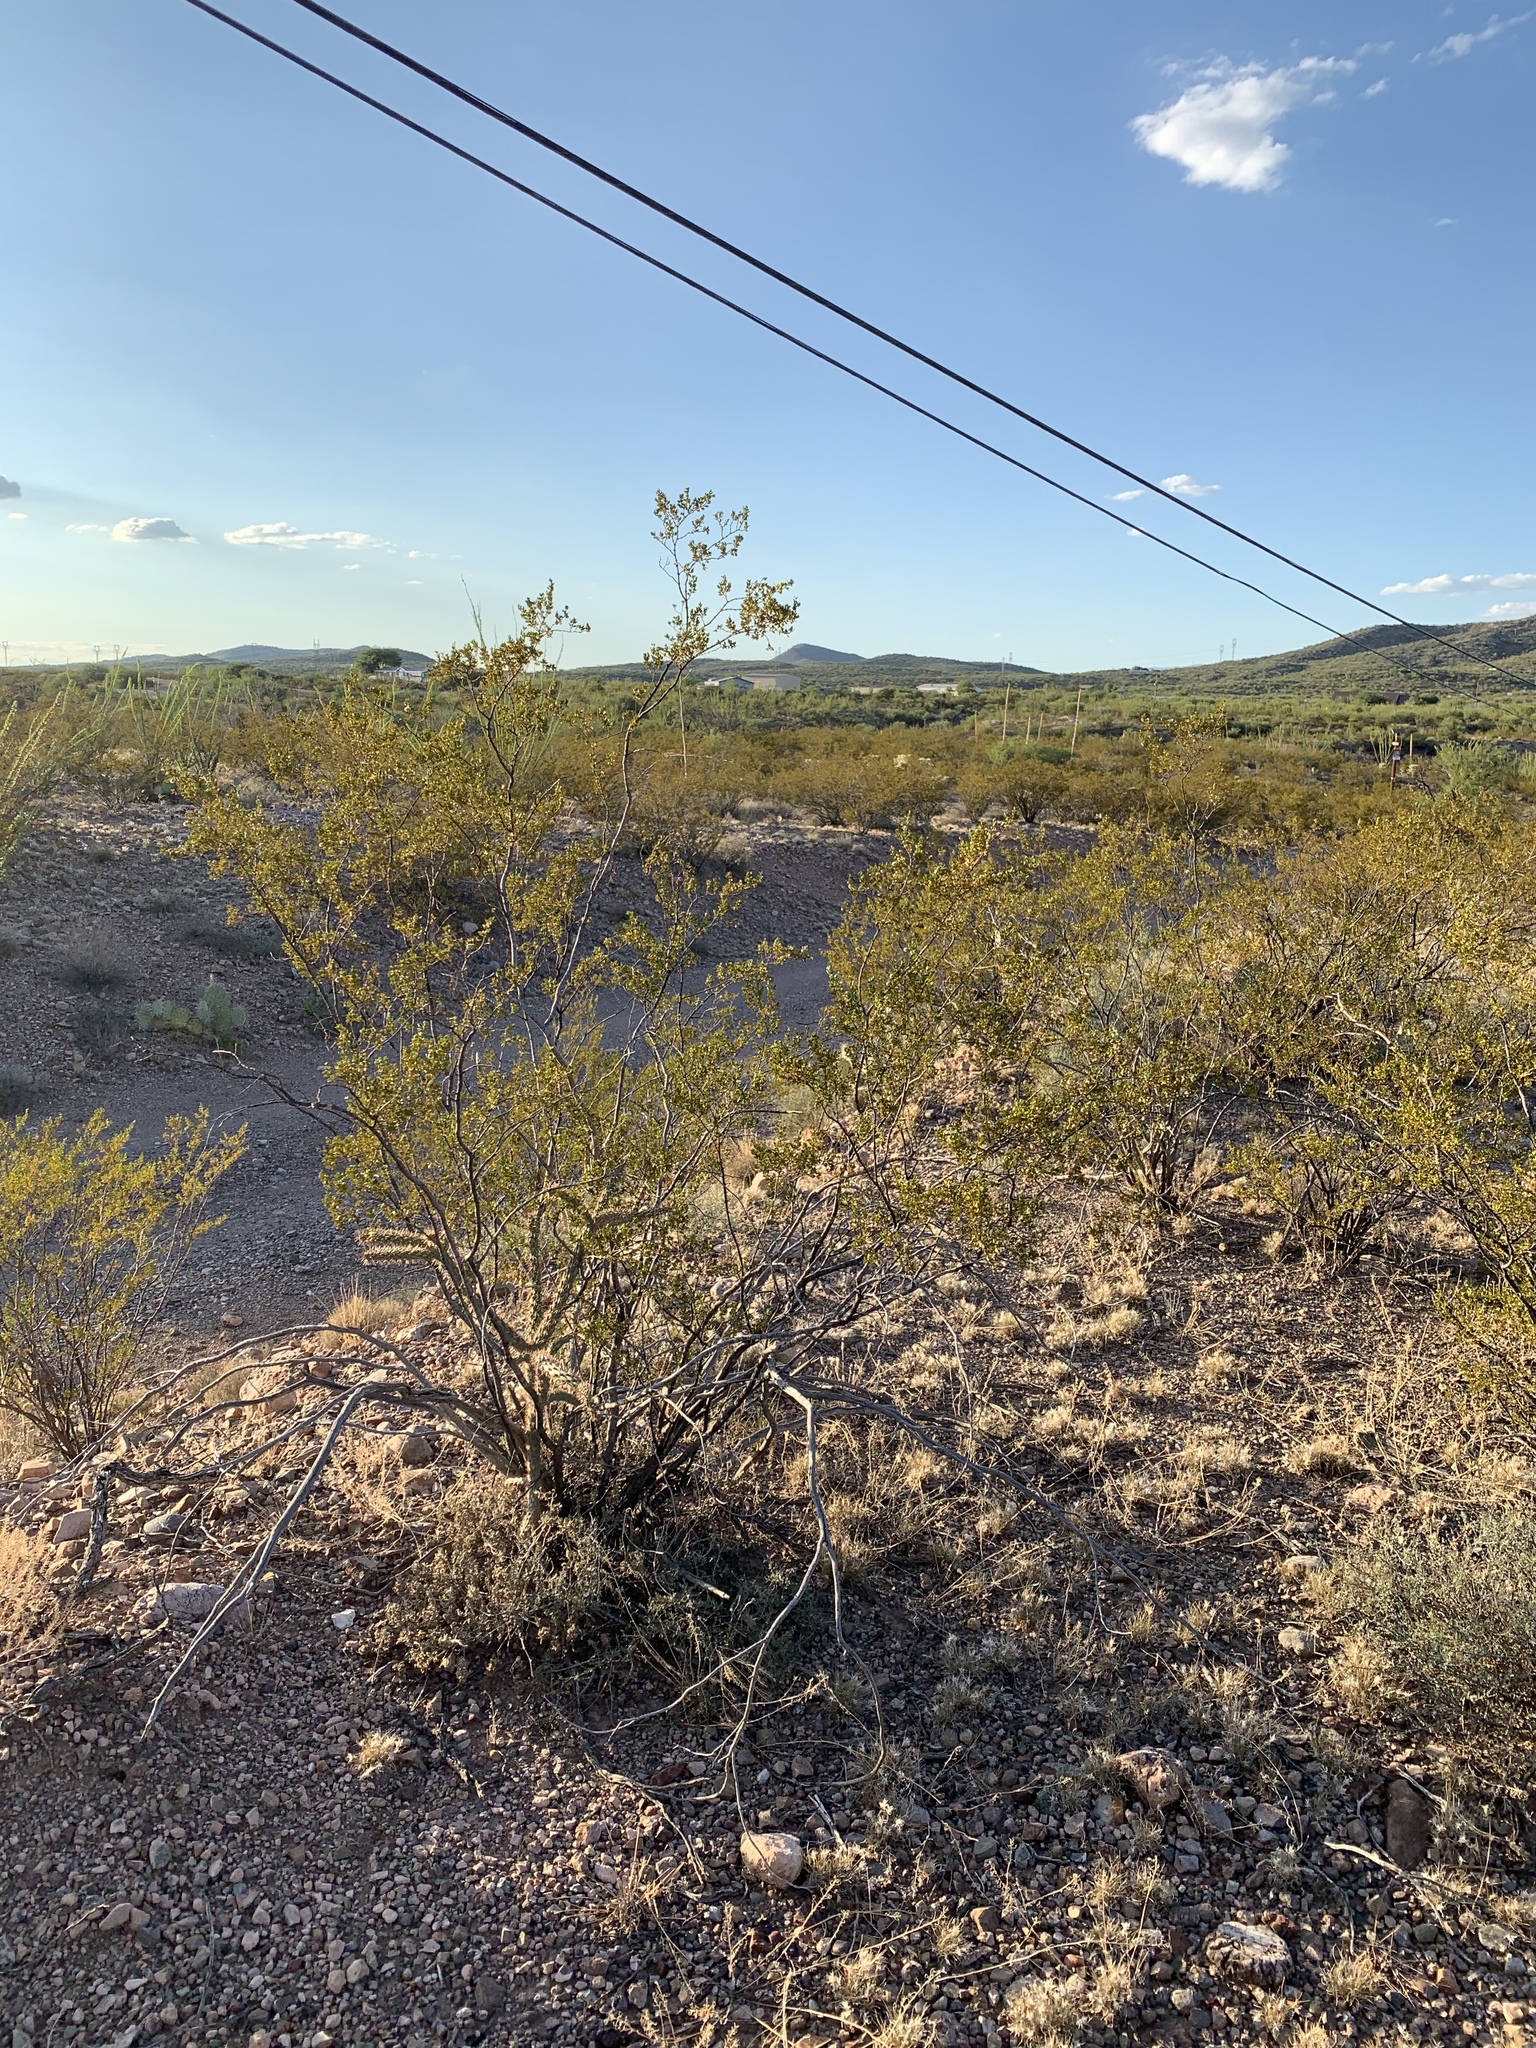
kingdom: Plantae
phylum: Tracheophyta
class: Magnoliopsida
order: Zygophyllales
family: Zygophyllaceae
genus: Larrea
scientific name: Larrea tridentata
